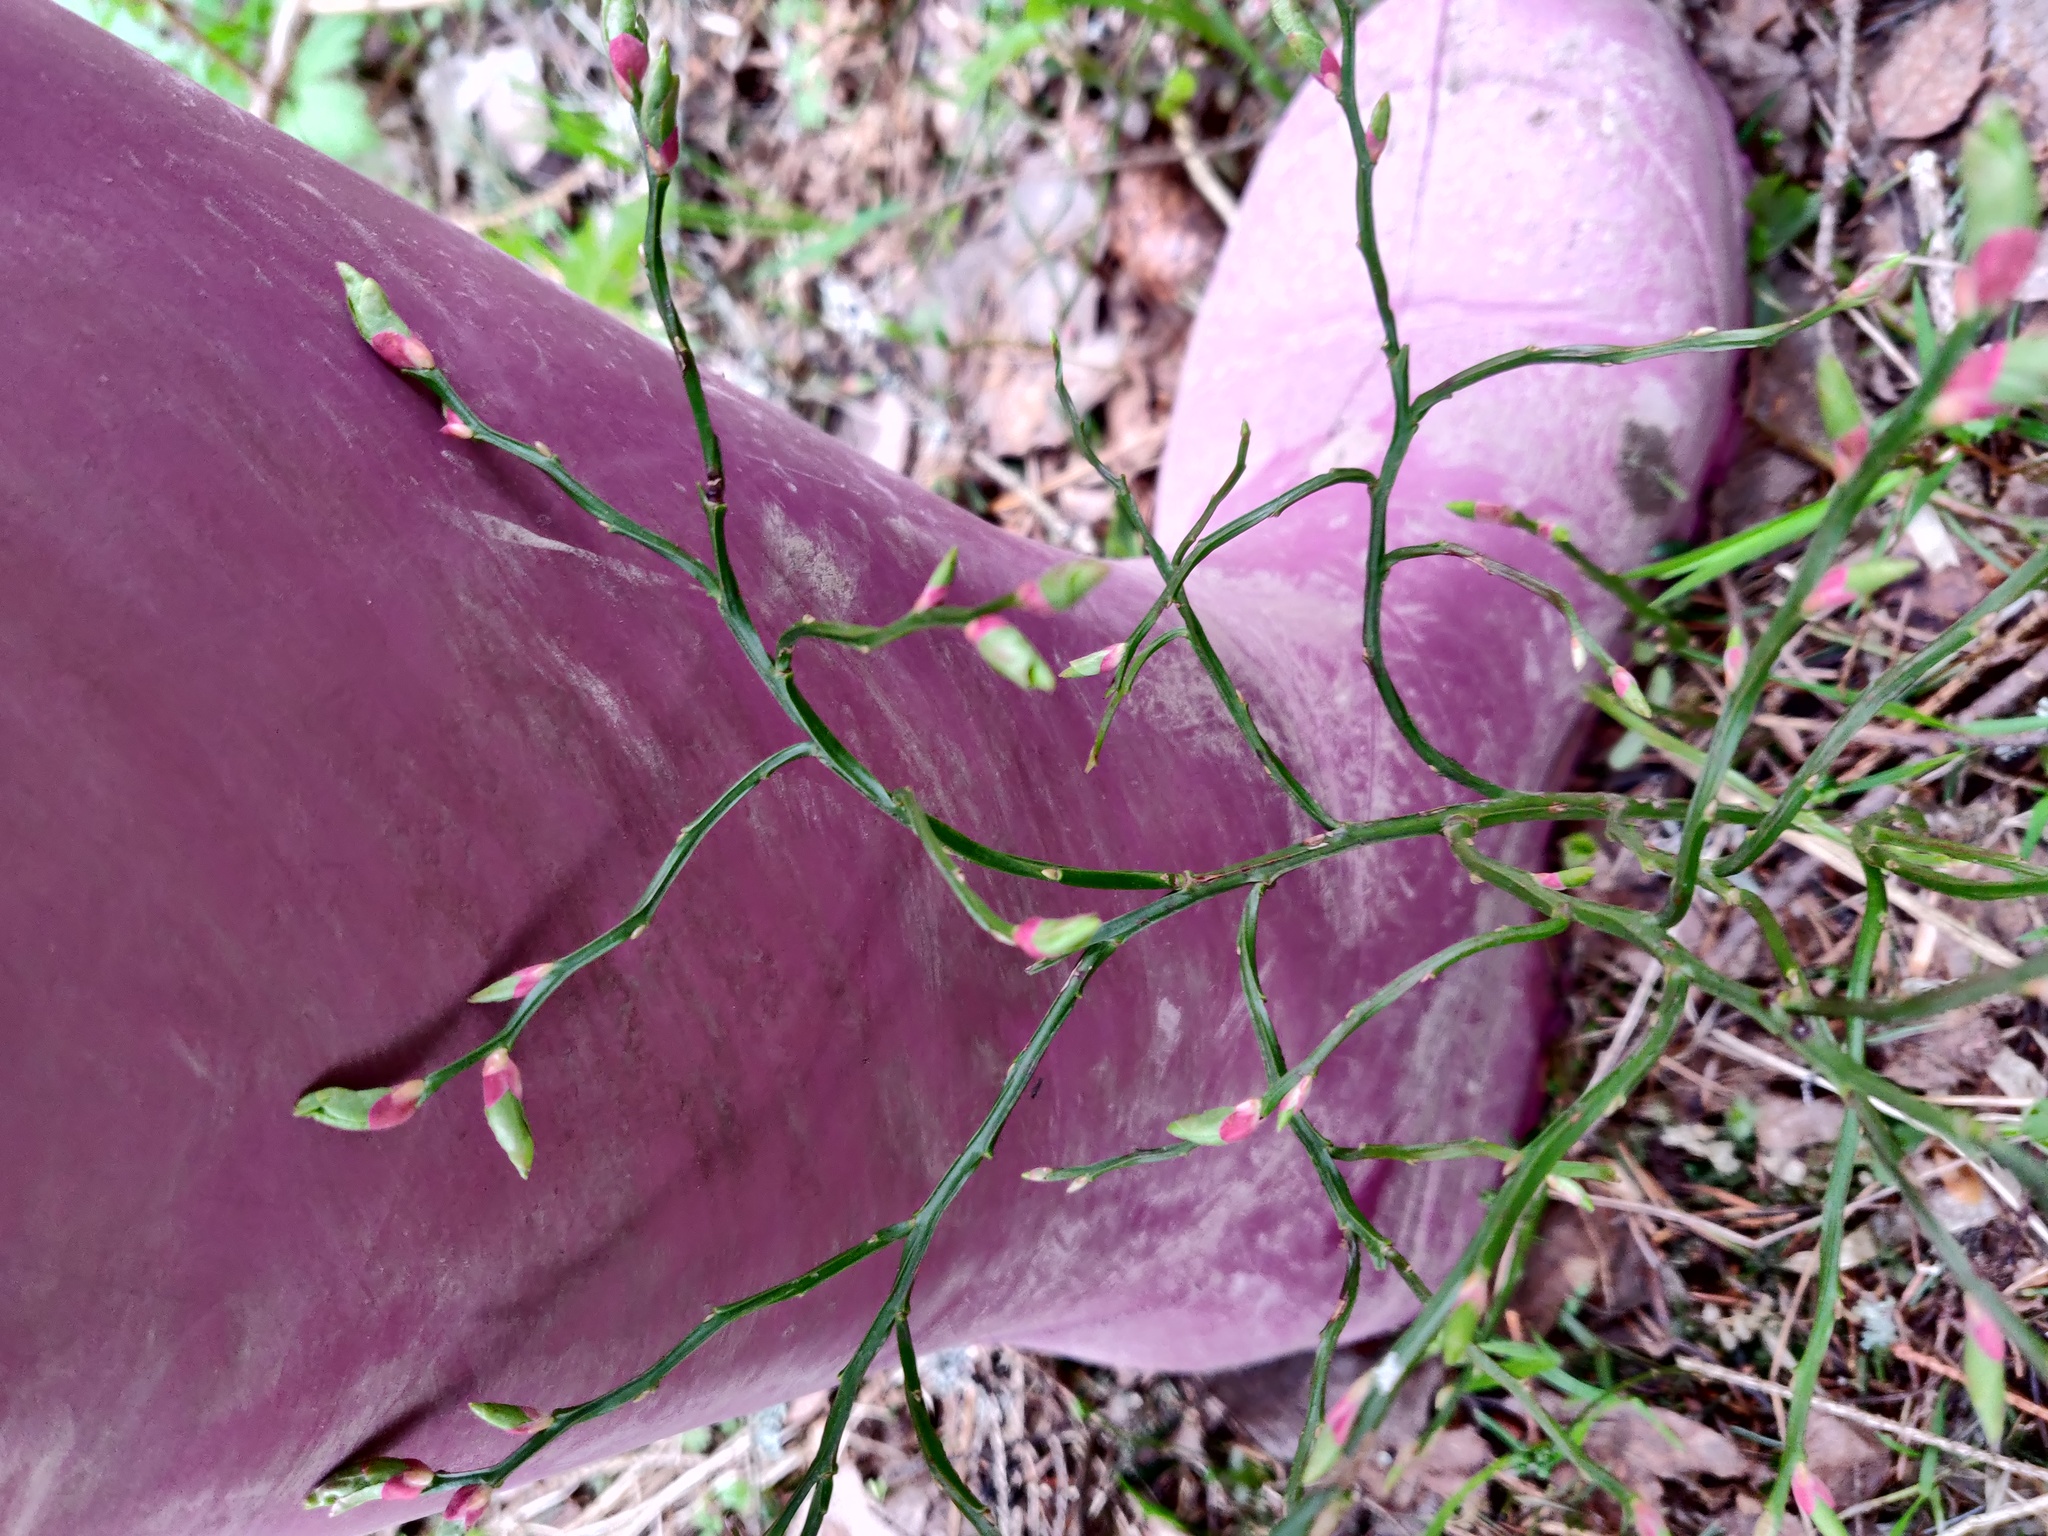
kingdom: Plantae
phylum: Tracheophyta
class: Magnoliopsida
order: Ericales
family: Ericaceae
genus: Vaccinium
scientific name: Vaccinium myrtillus
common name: Bilberry
